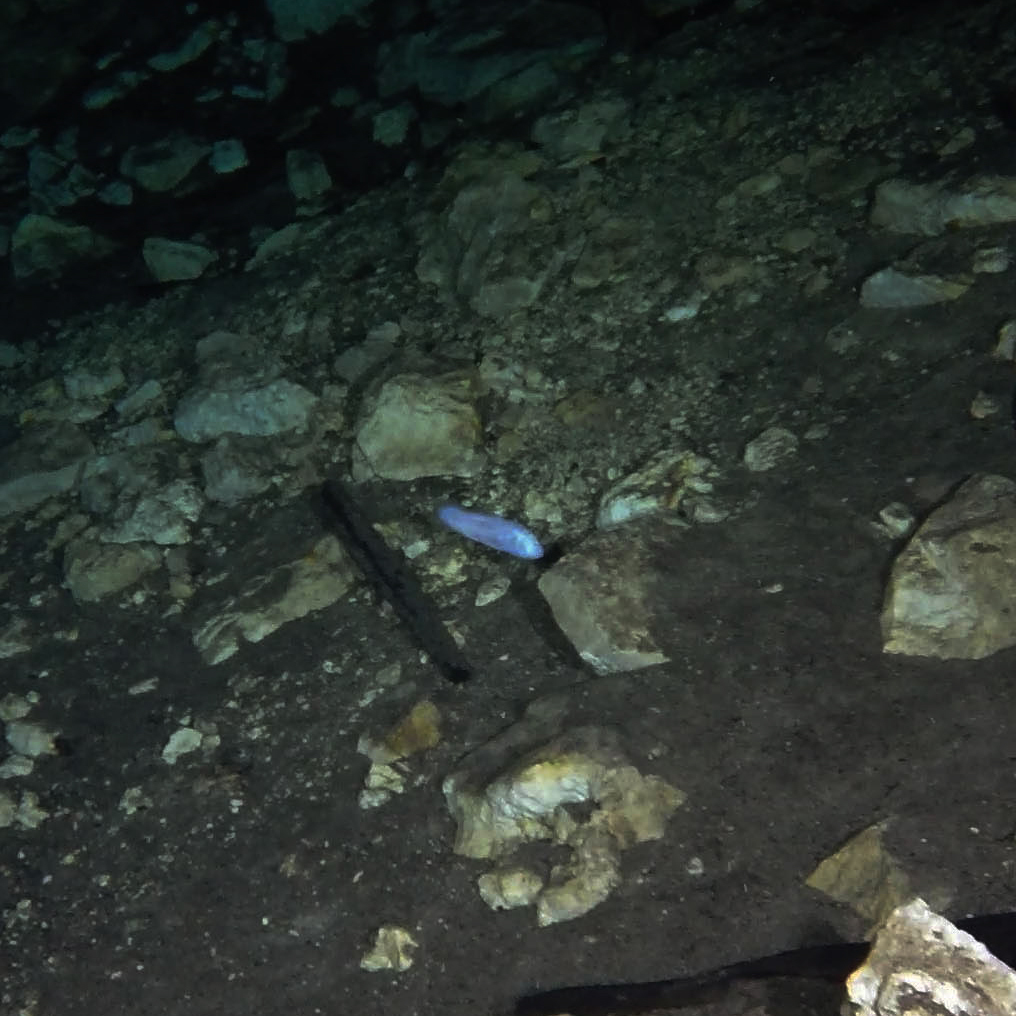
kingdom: Animalia
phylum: Chordata
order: Ophidiiformes
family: Bythitidae
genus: Typhliasina
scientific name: Typhliasina pearsei
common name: Dama ciega blanca
